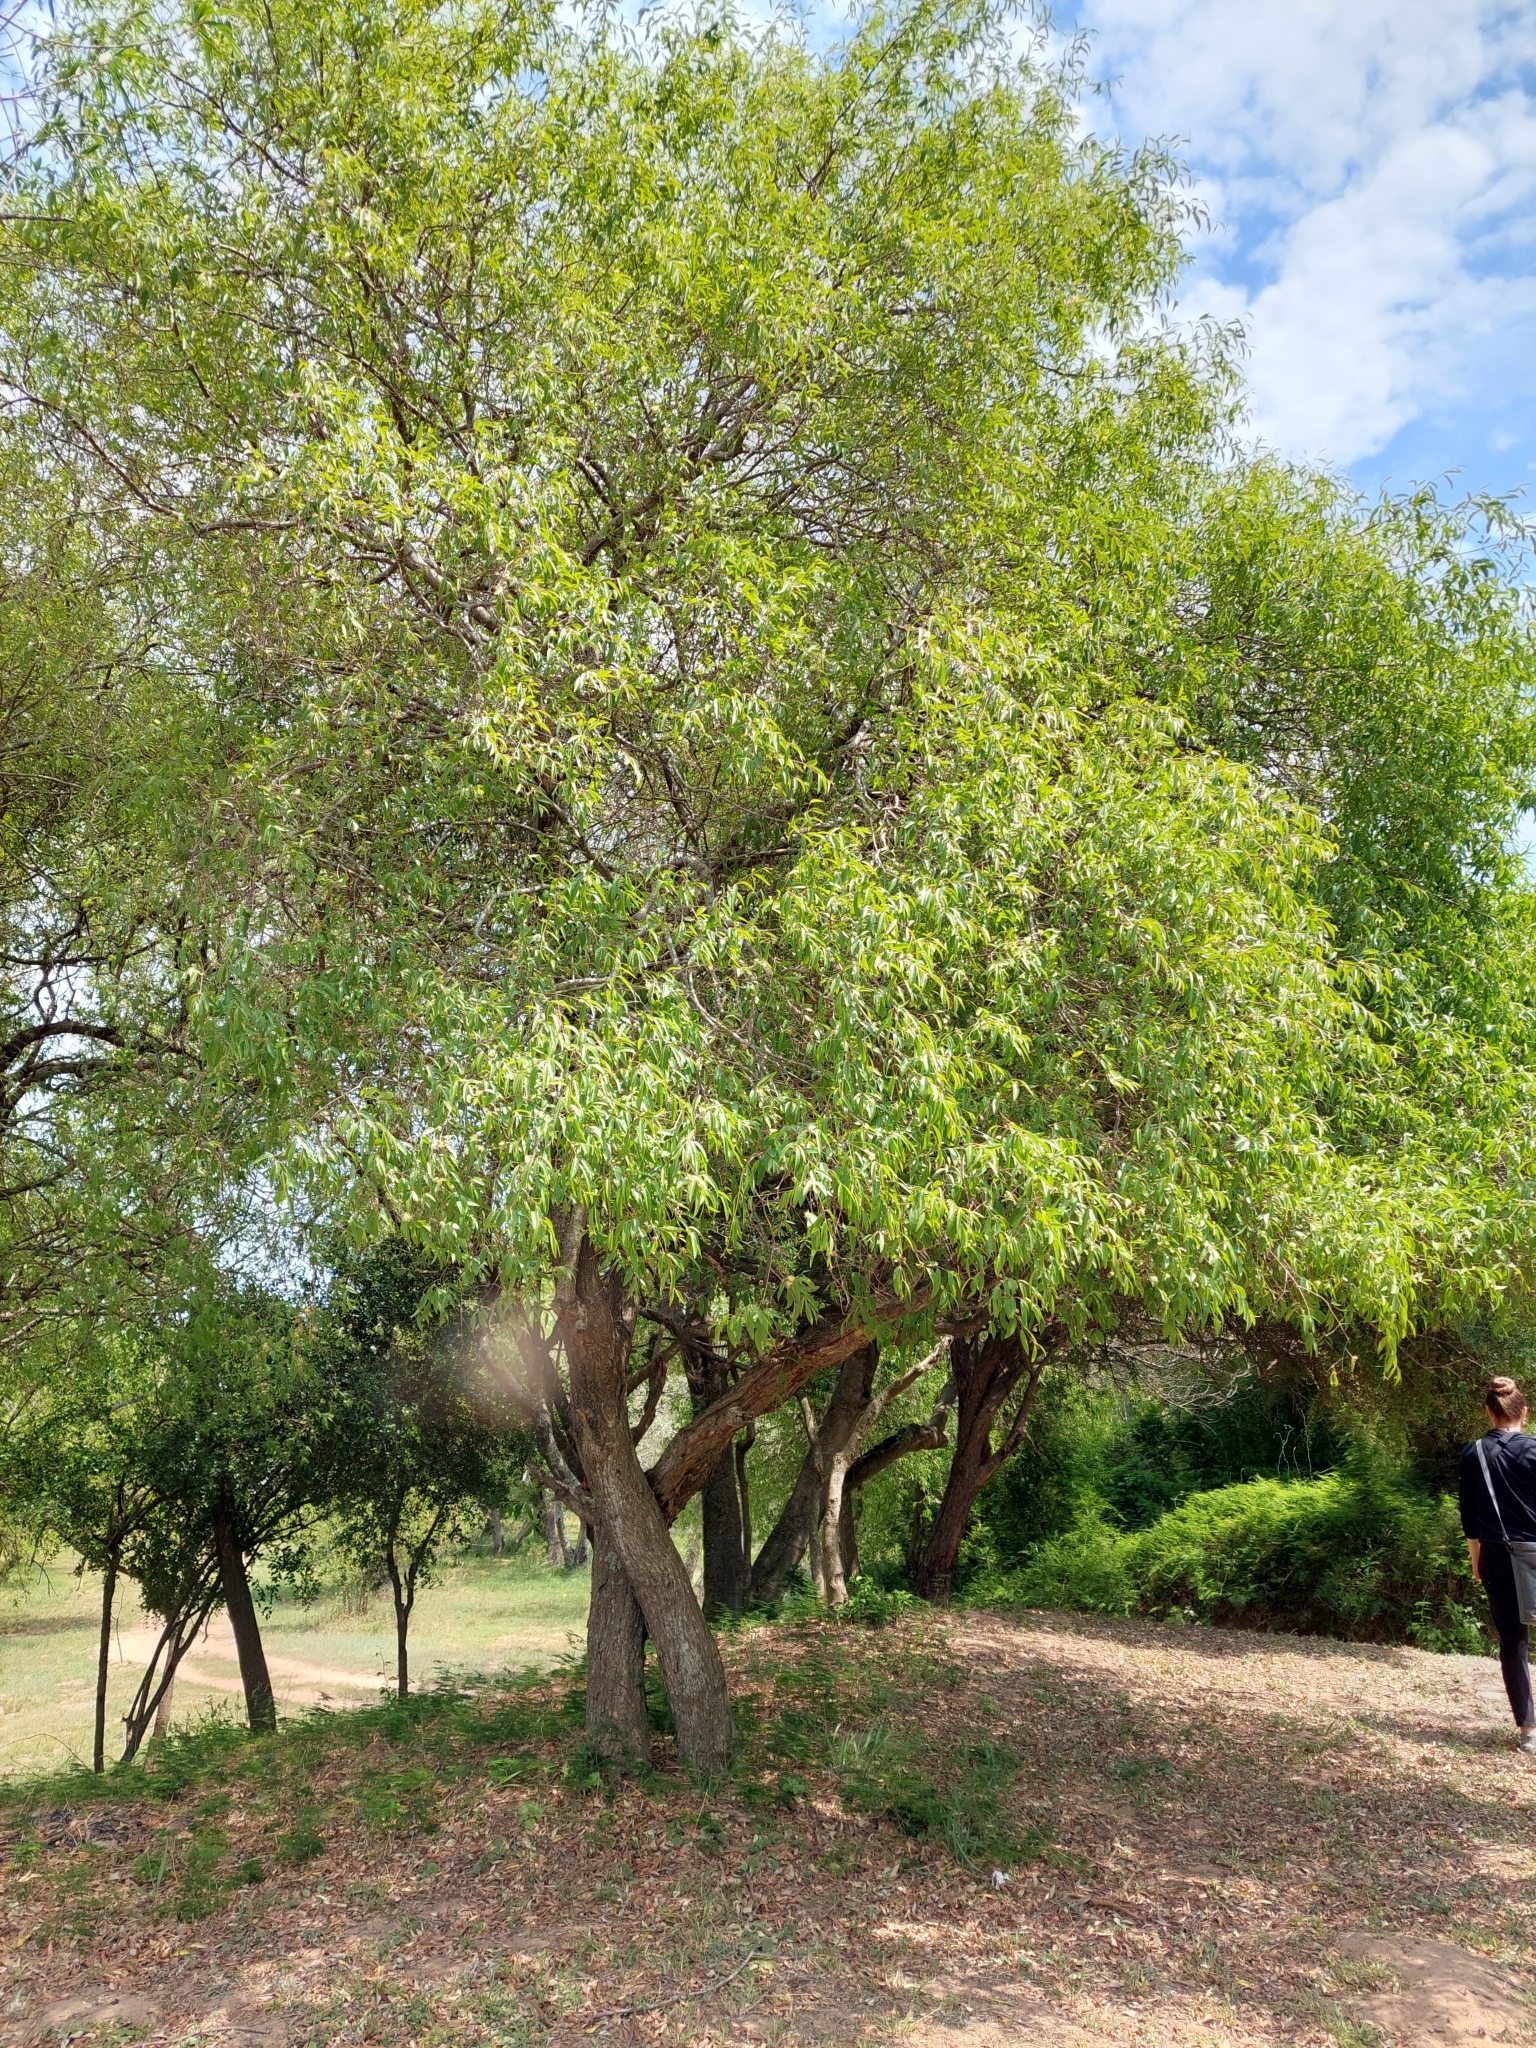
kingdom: Plantae
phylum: Tracheophyta
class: Magnoliopsida
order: Myrtales
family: Myrtaceae
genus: Eugenia
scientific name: Eugenia myrcianthes
